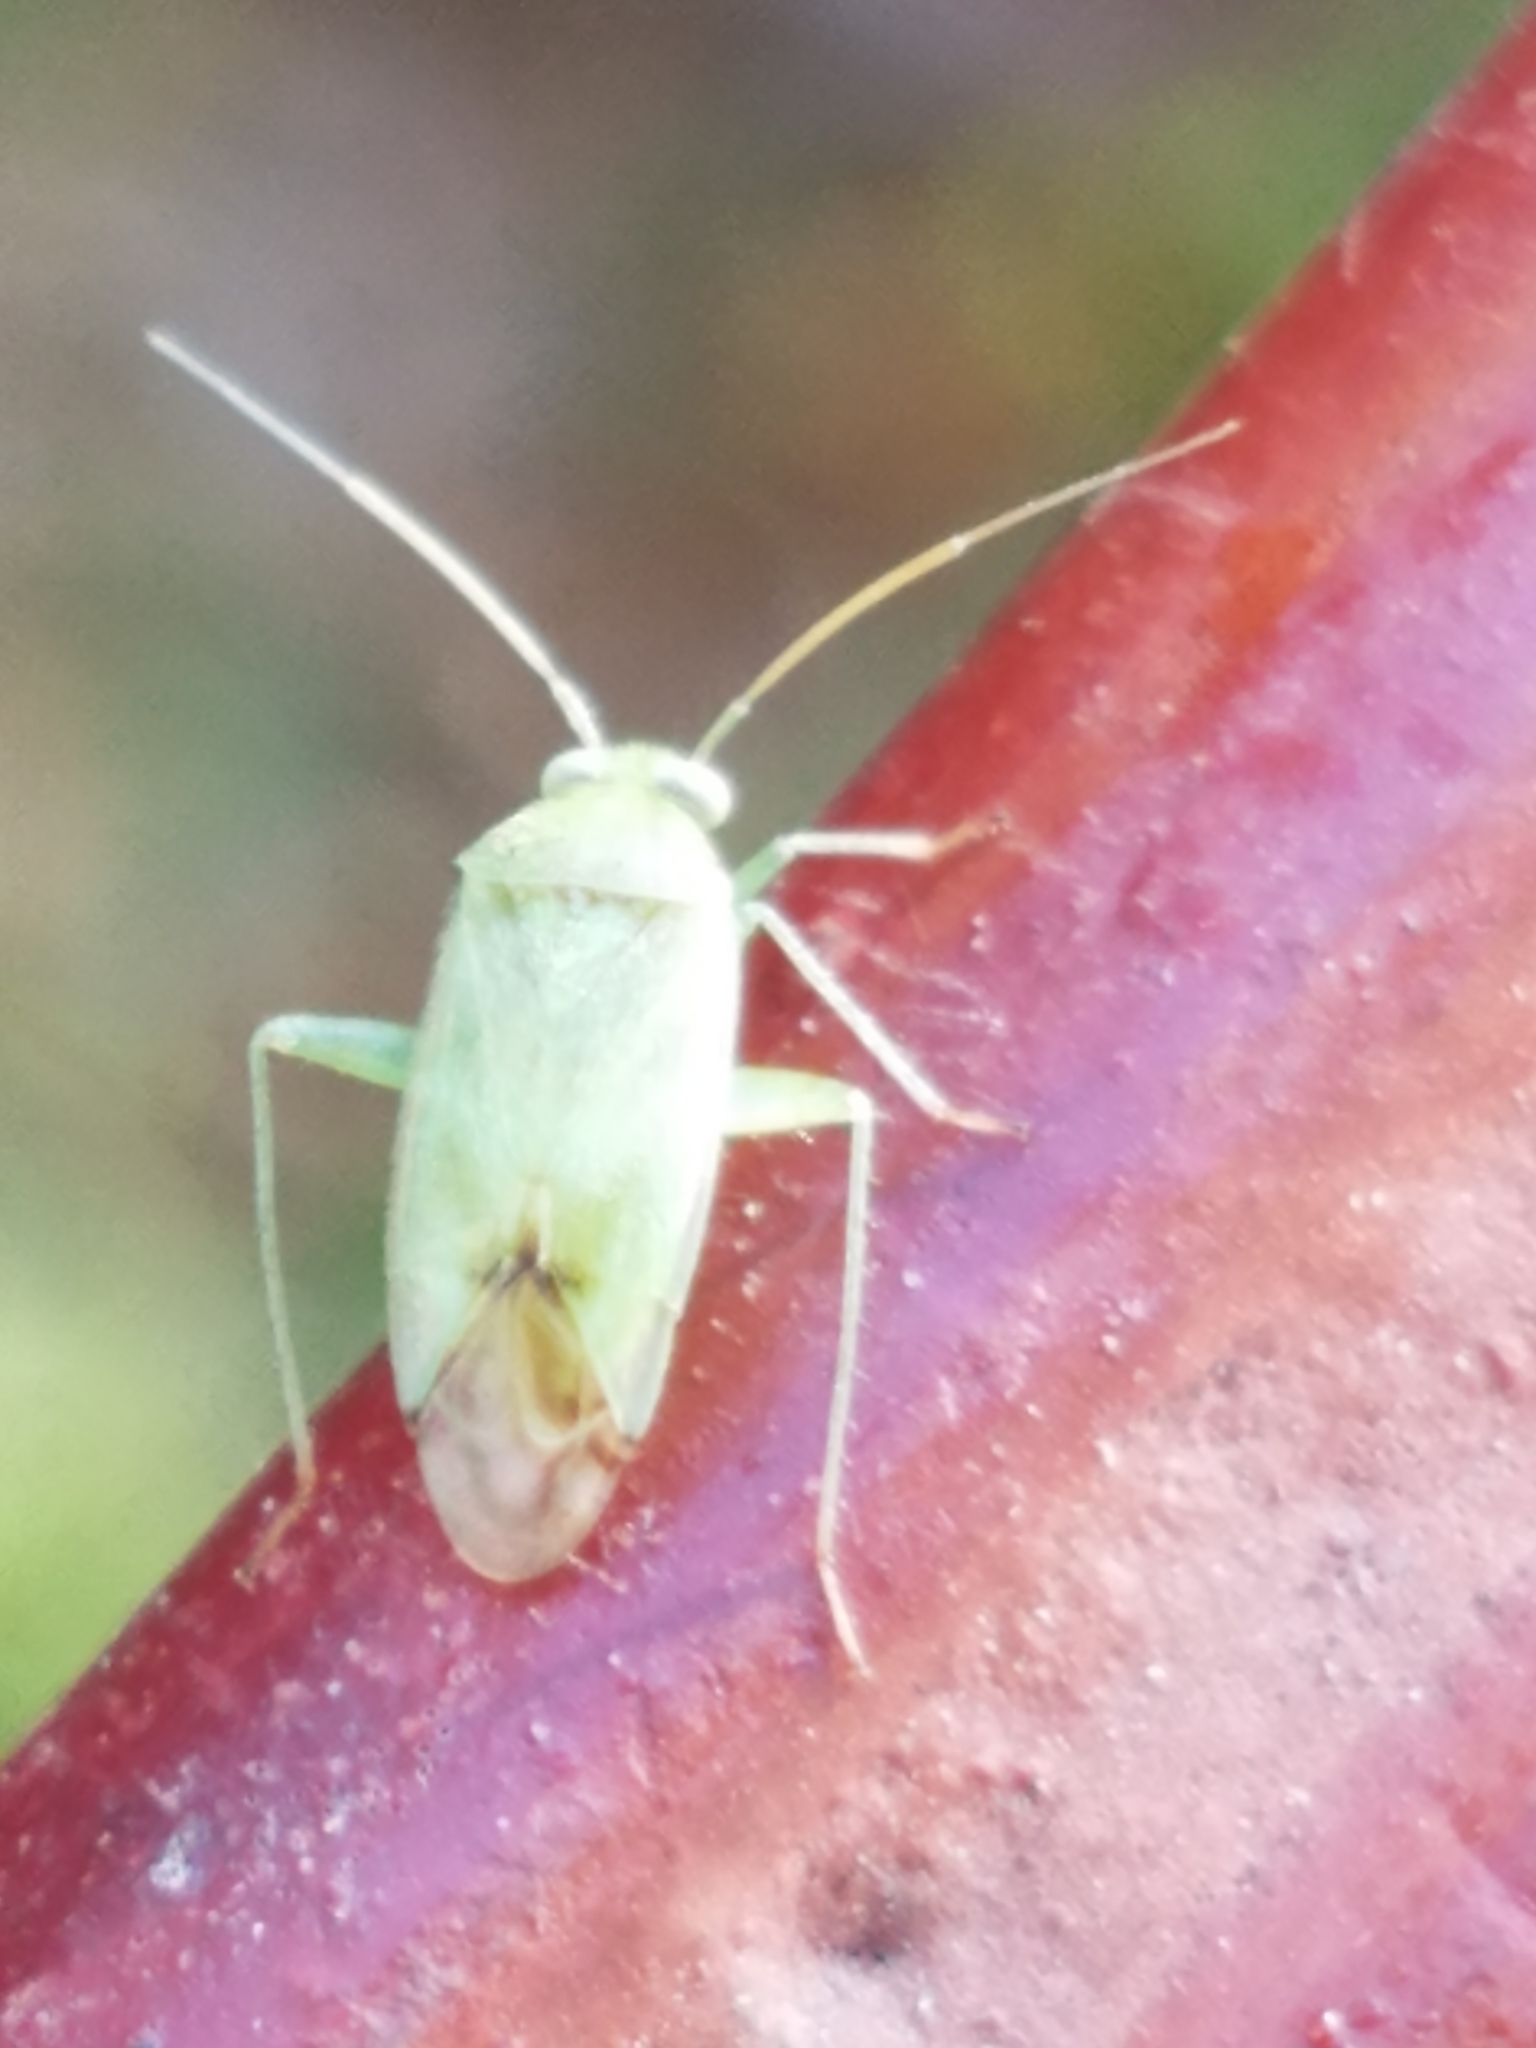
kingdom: Animalia
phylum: Arthropoda
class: Insecta
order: Hemiptera
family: Miridae
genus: Taylorilygus
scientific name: Taylorilygus apicalis
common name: Plant bug
